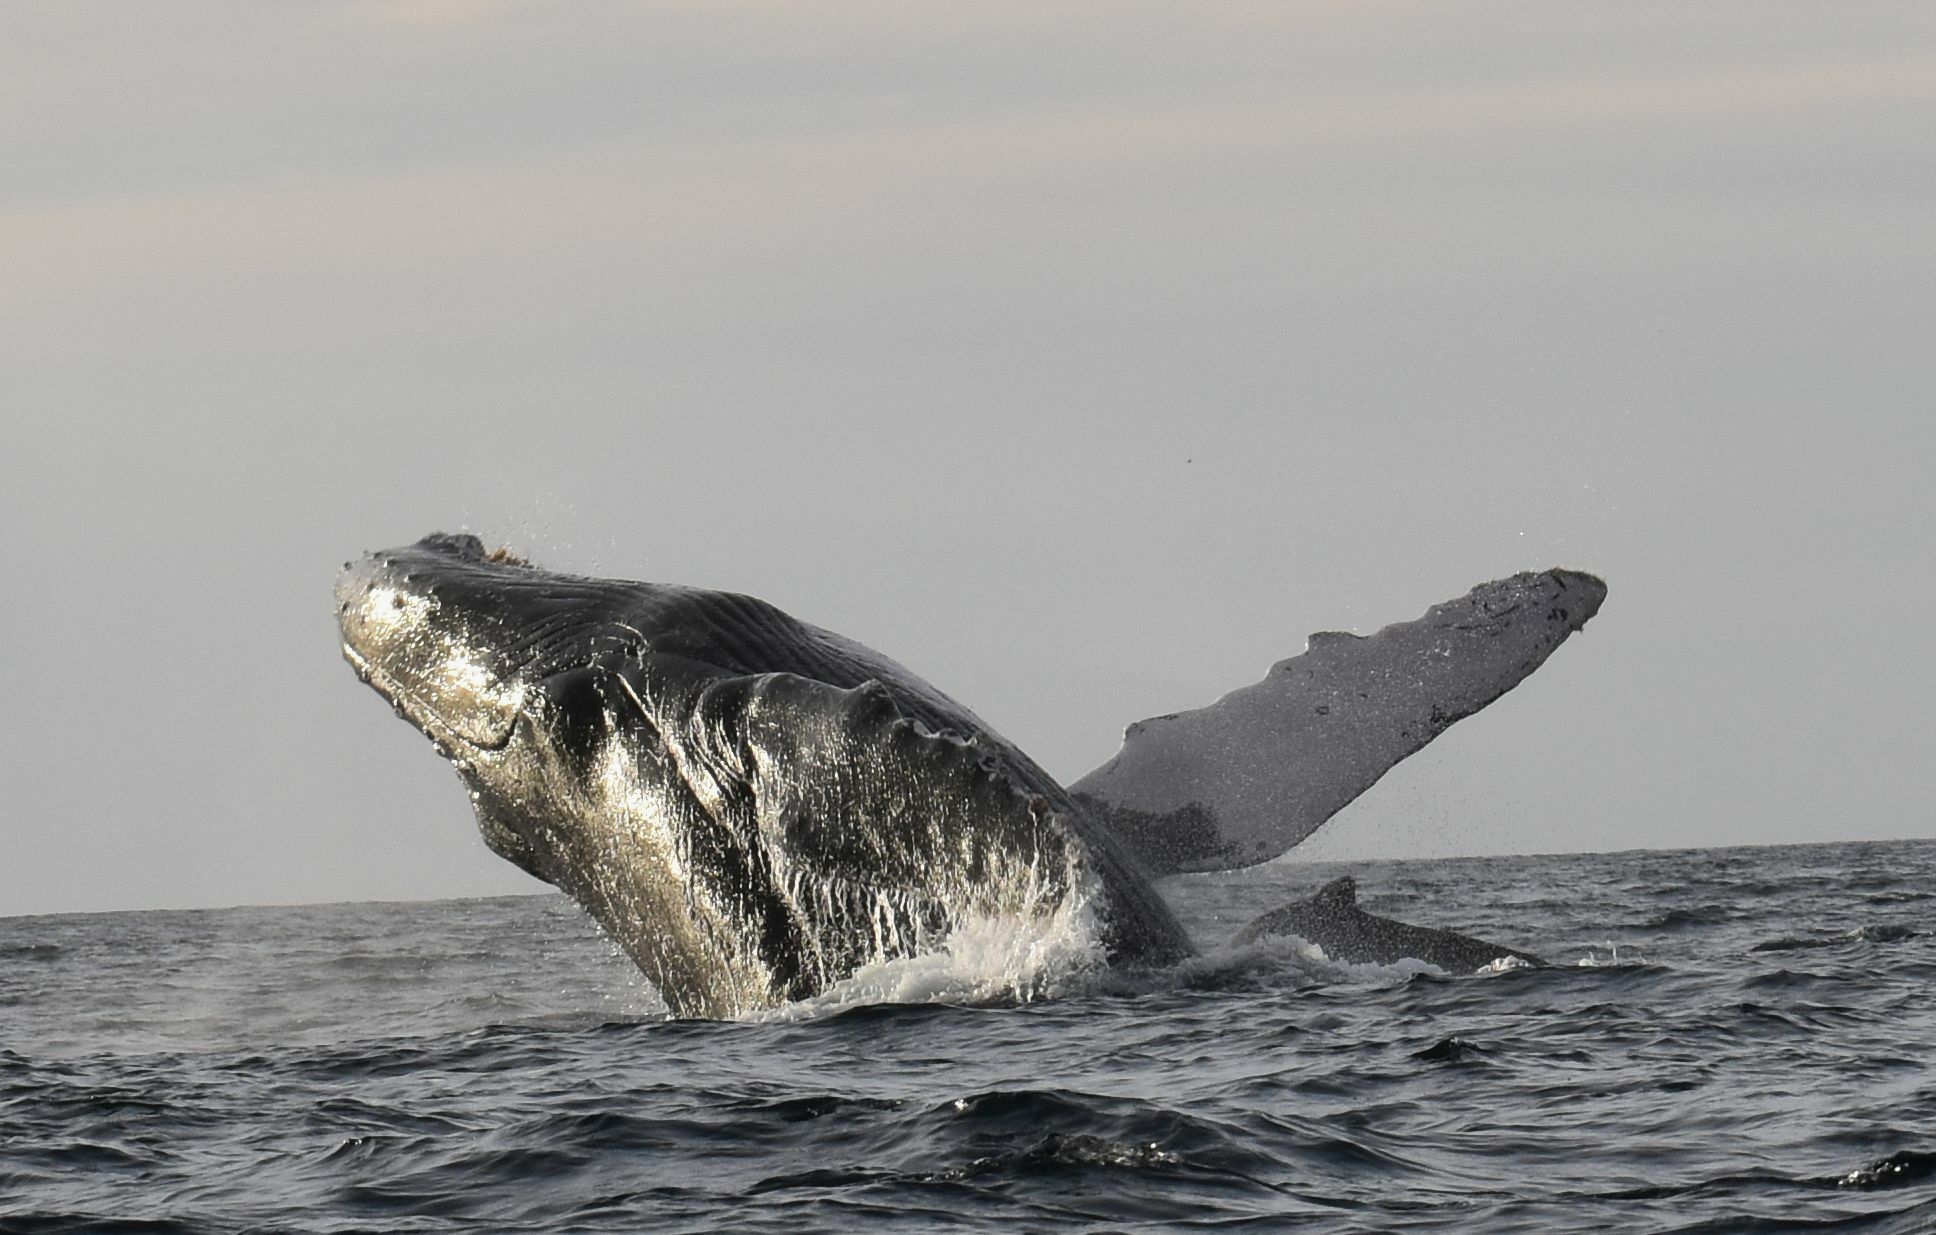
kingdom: Animalia
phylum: Chordata
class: Mammalia
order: Cetacea
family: Balaenopteridae
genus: Megaptera
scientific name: Megaptera novaeangliae
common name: Humpback whale
